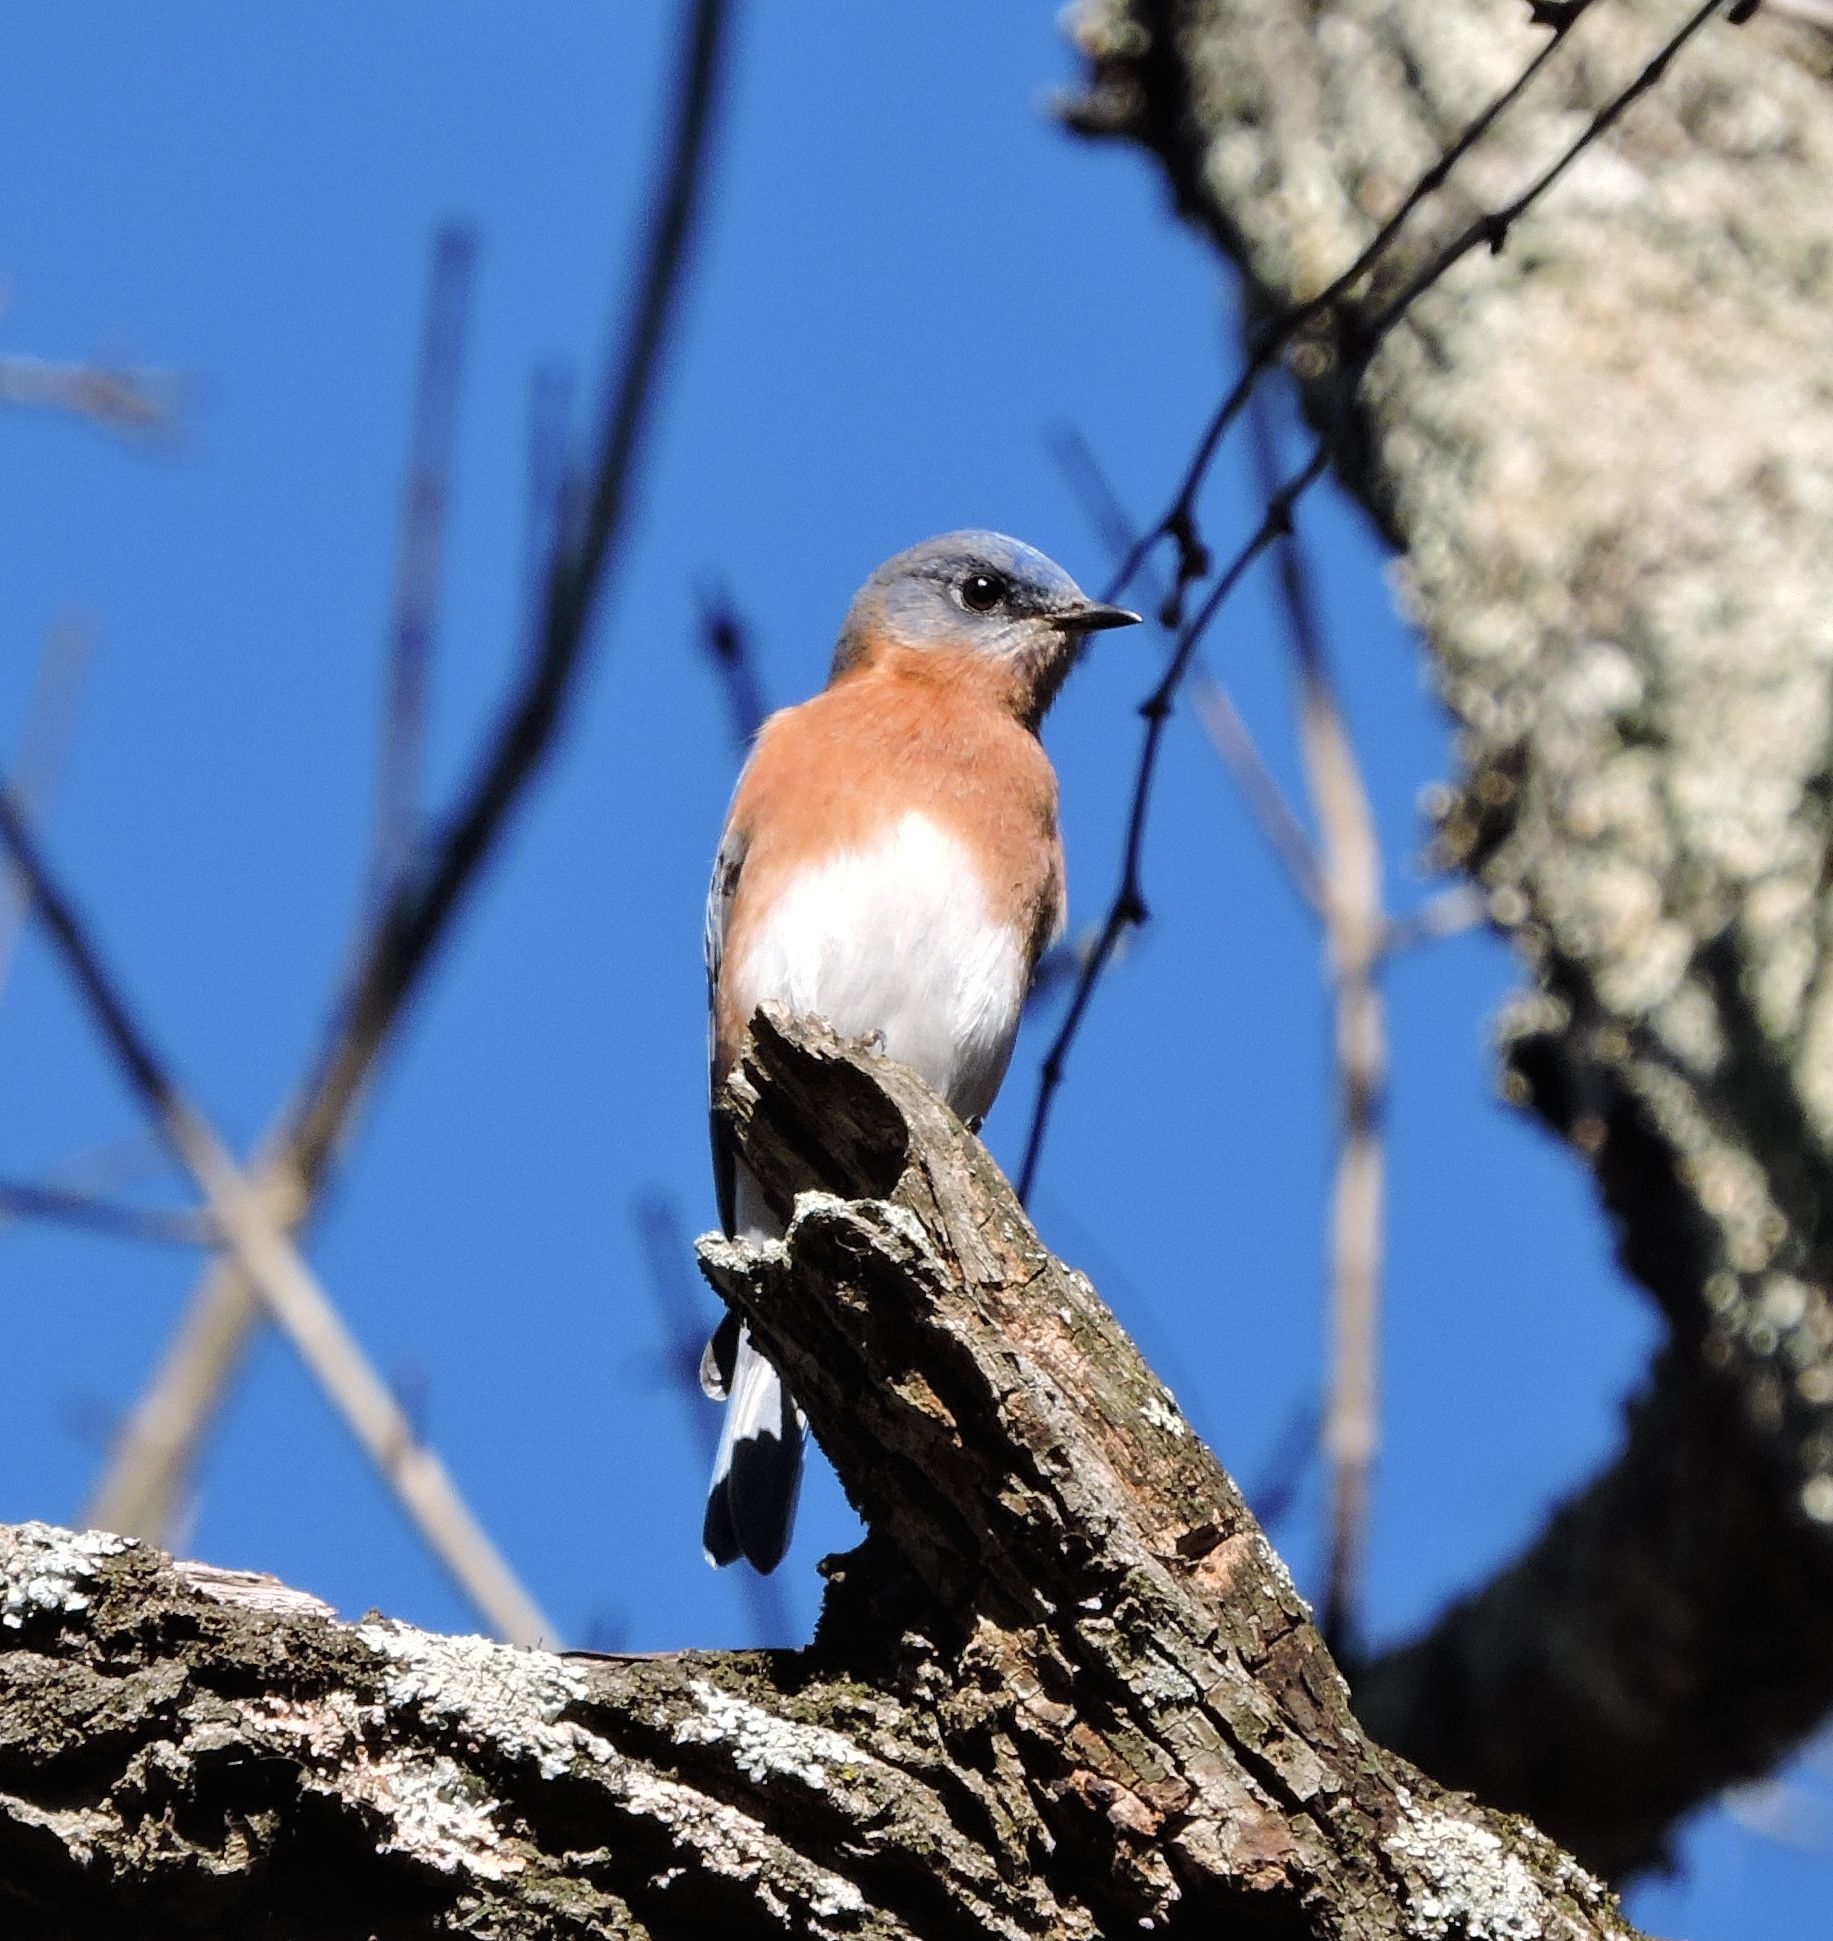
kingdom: Animalia
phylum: Chordata
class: Aves
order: Passeriformes
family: Turdidae
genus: Sialia
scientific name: Sialia sialis
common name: Eastern bluebird
